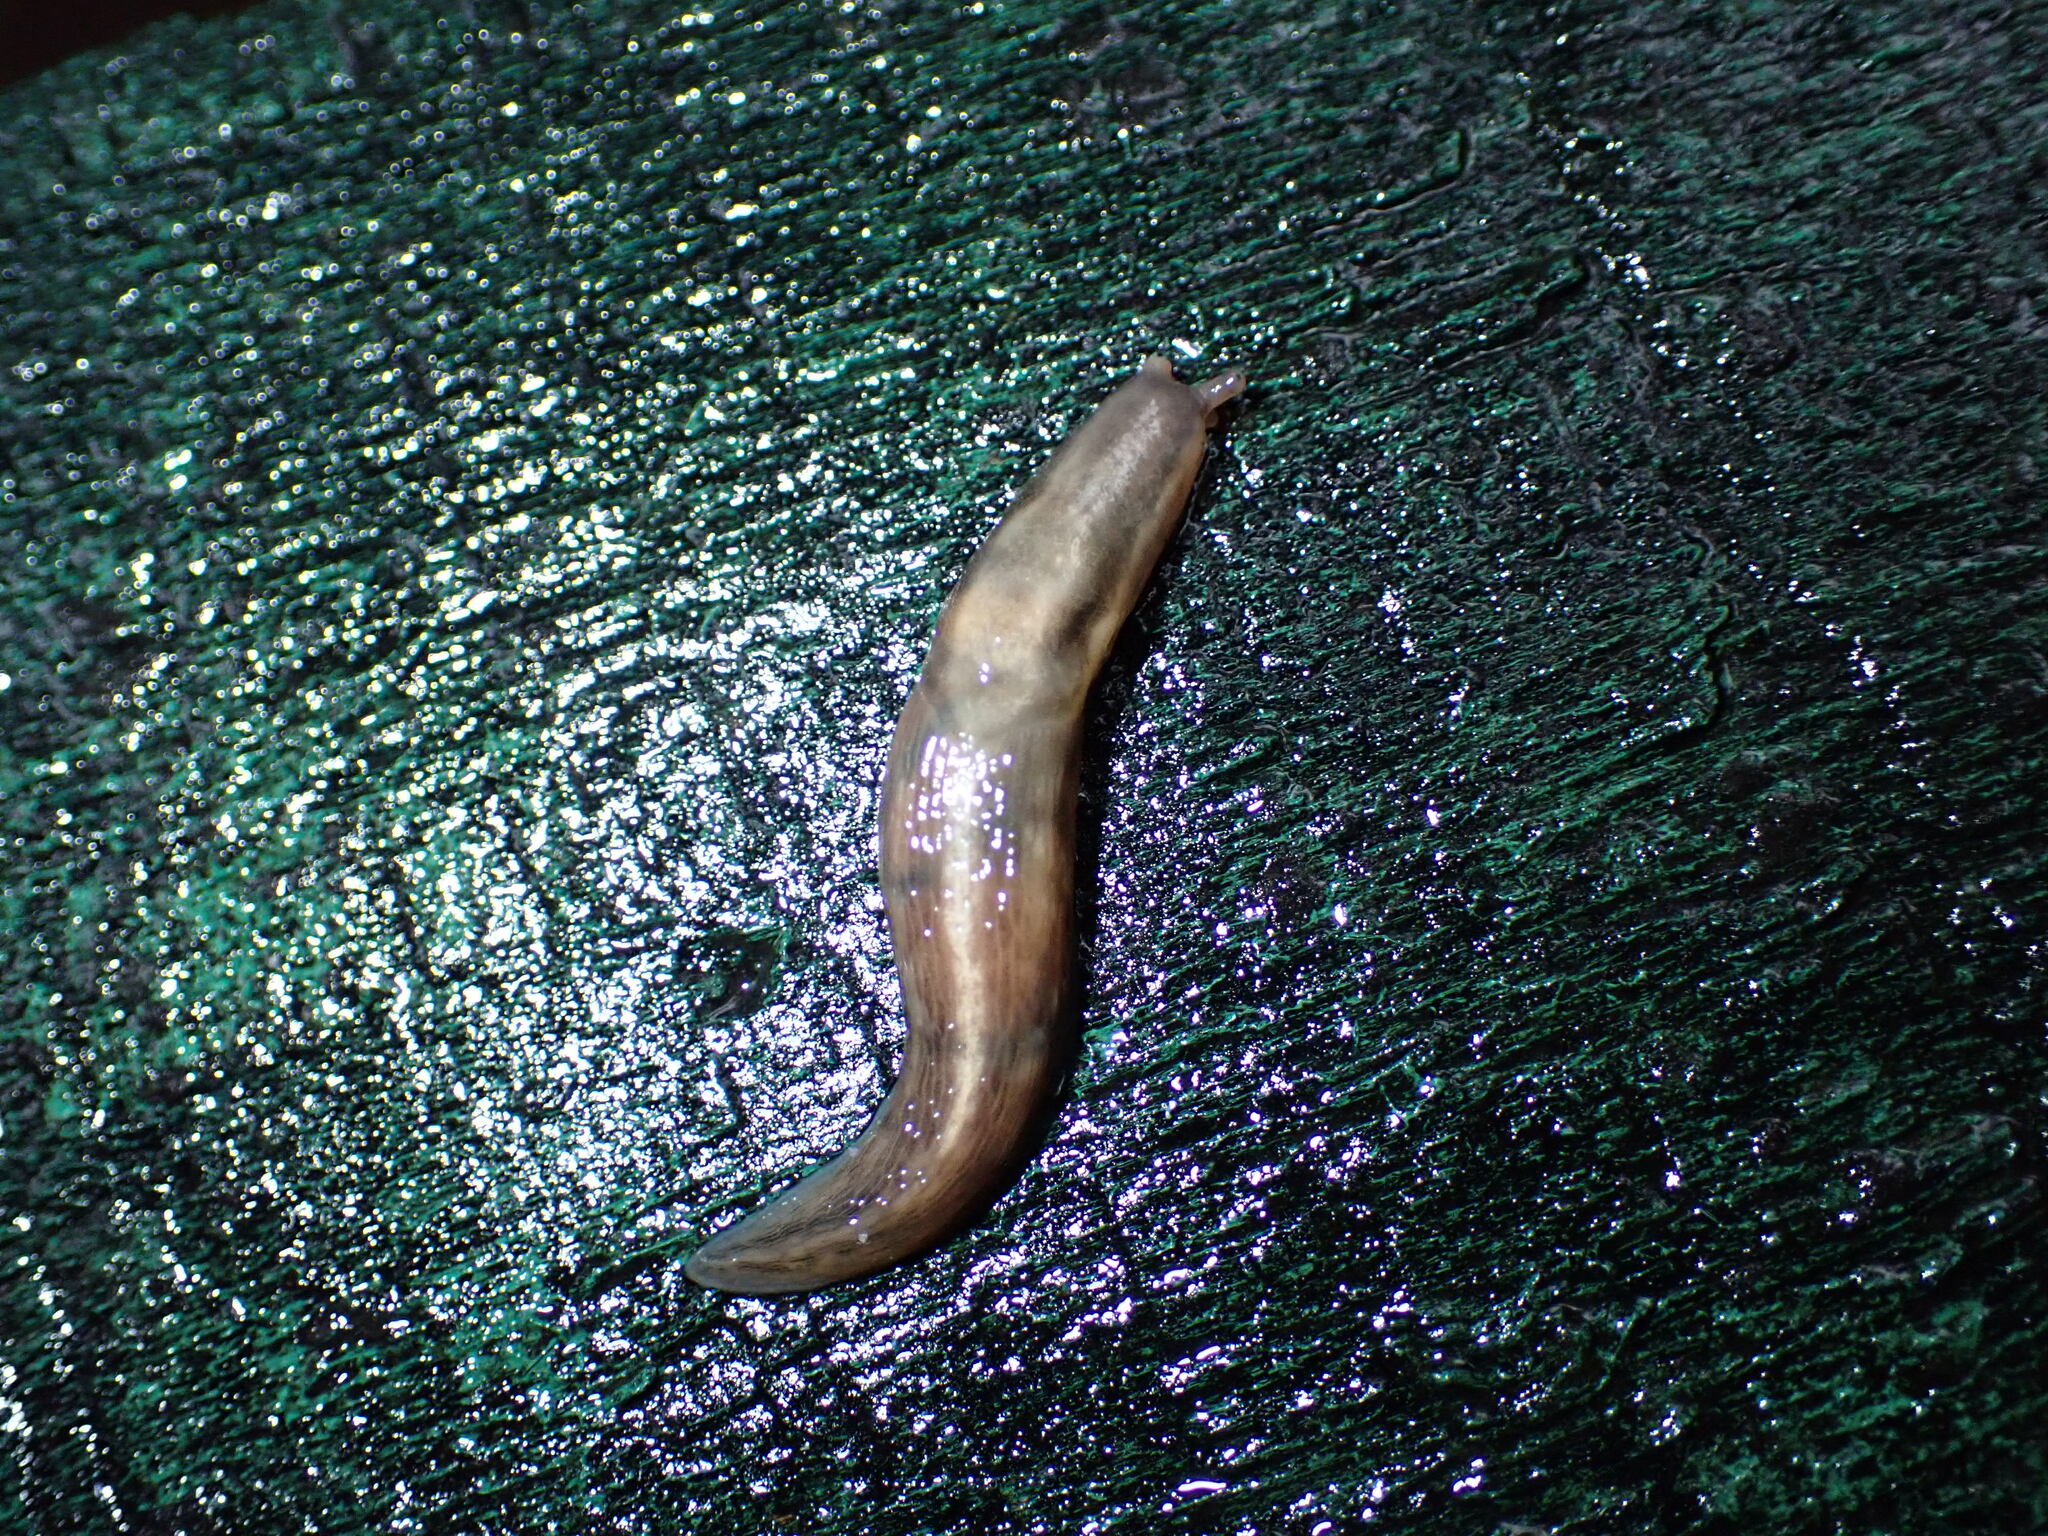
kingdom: Animalia
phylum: Mollusca
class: Gastropoda
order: Stylommatophora
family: Limacidae
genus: Lehmannia
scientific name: Lehmannia marginata
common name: Tree slug
